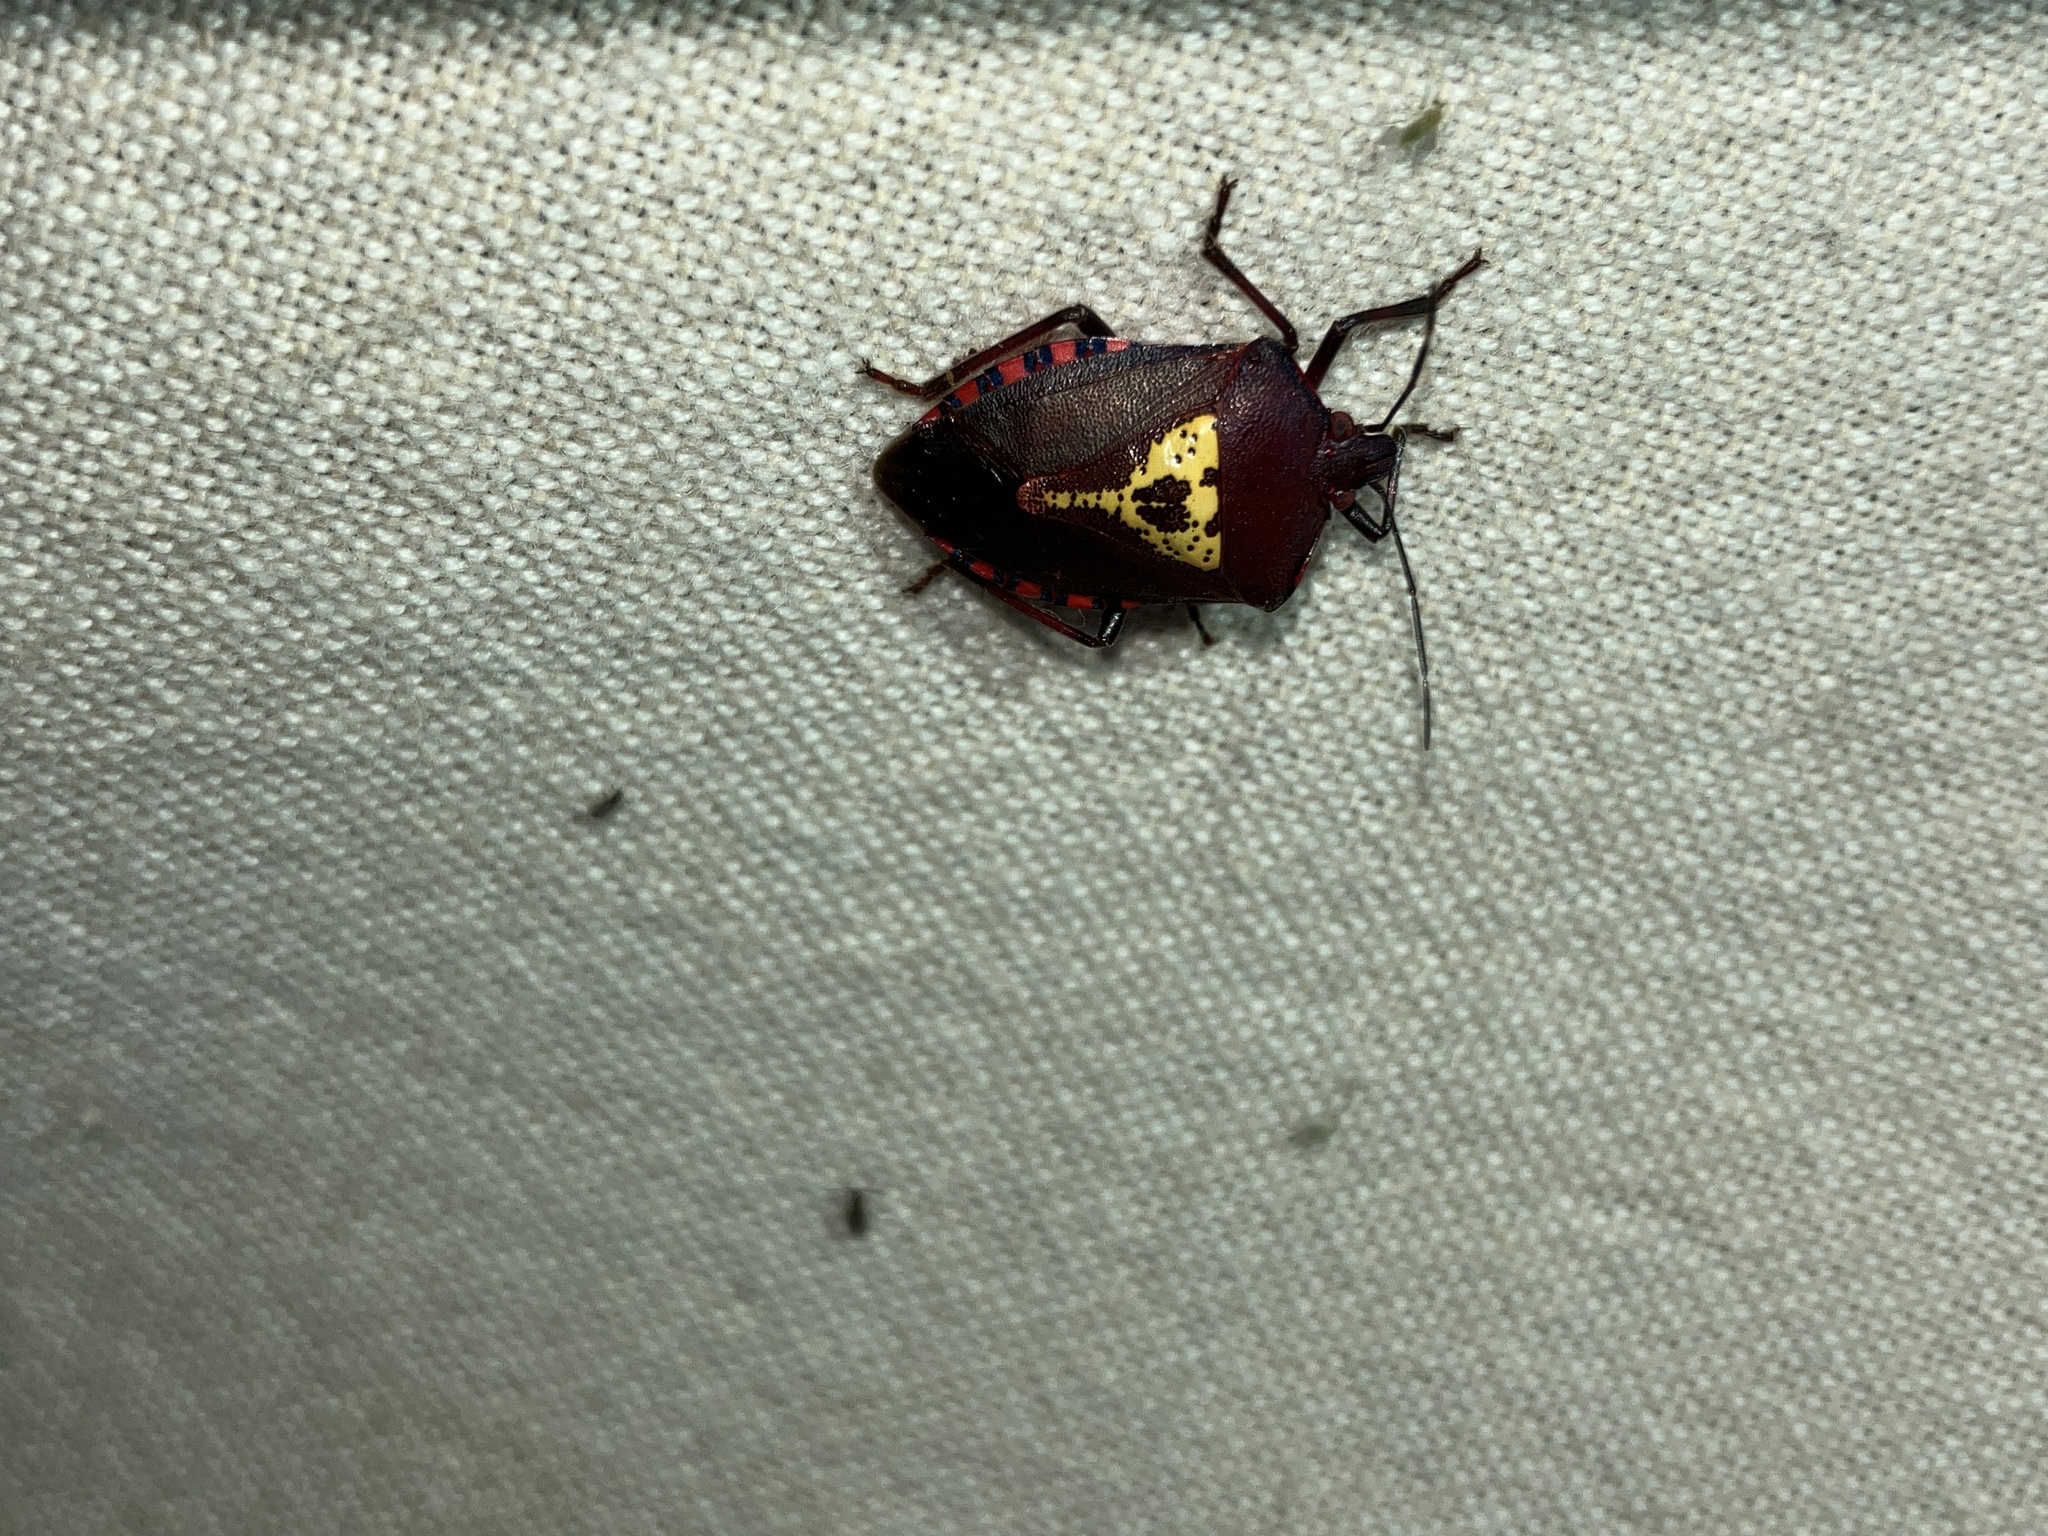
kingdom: Animalia
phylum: Arthropoda
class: Insecta
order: Hemiptera
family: Pentatomidae
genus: Halyomorpha
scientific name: Halyomorpha
